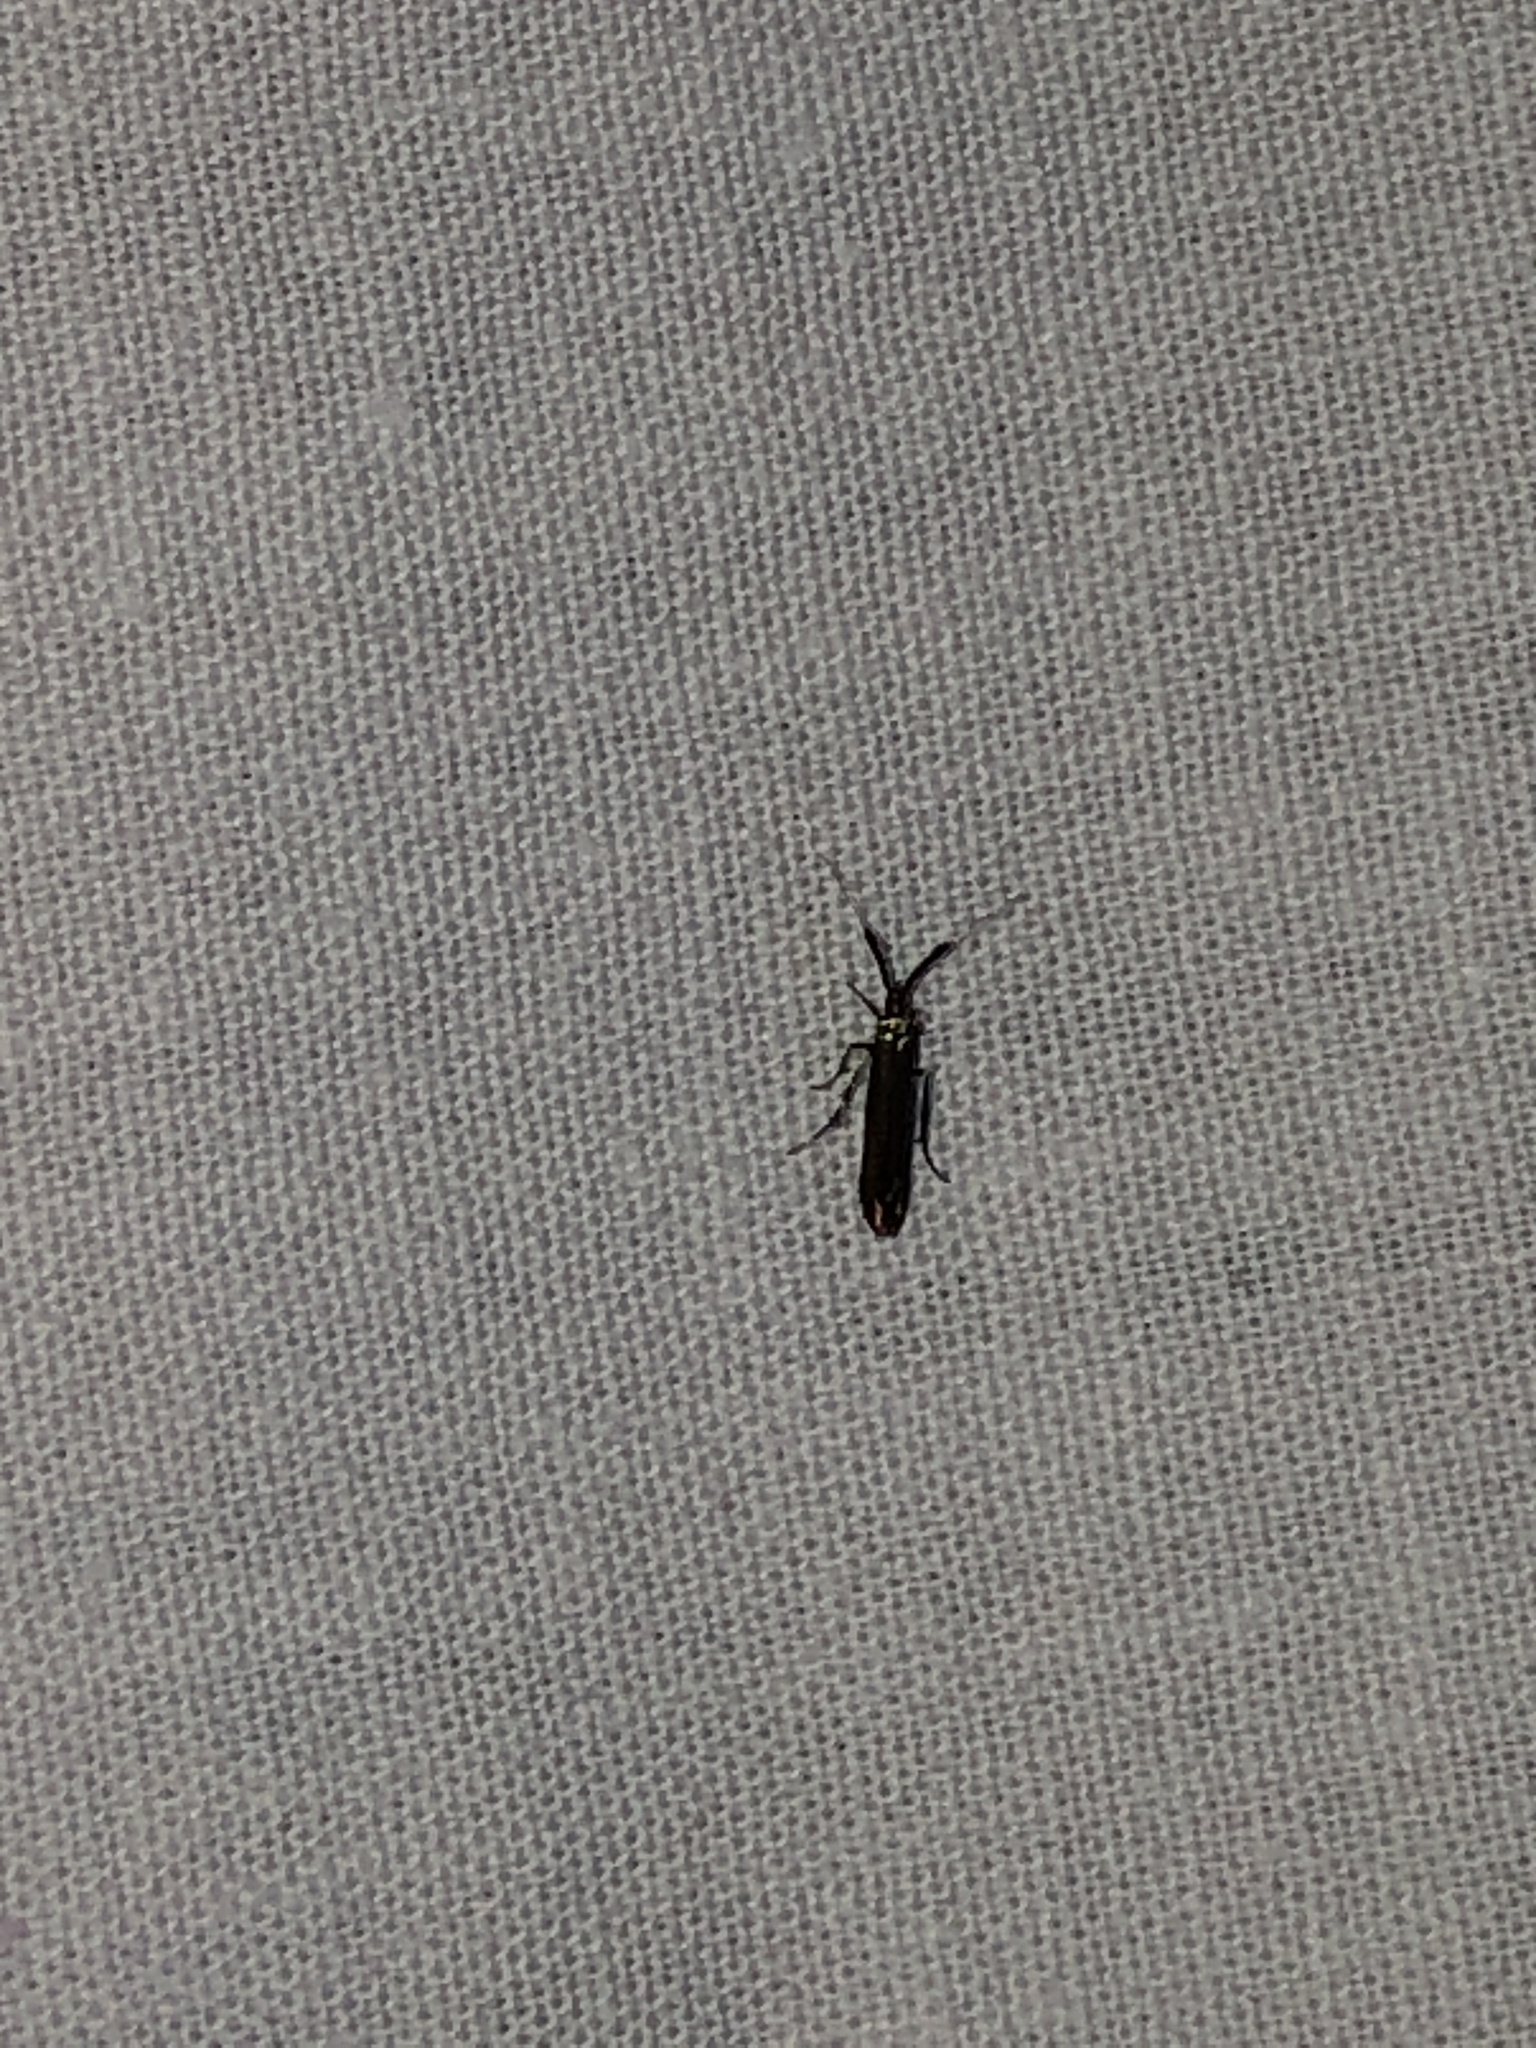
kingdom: Animalia
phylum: Arthropoda
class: Insecta
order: Lepidoptera
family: Coleophoridae
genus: Coleophora
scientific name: Coleophora mayrella
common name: Meadow case-bearer
